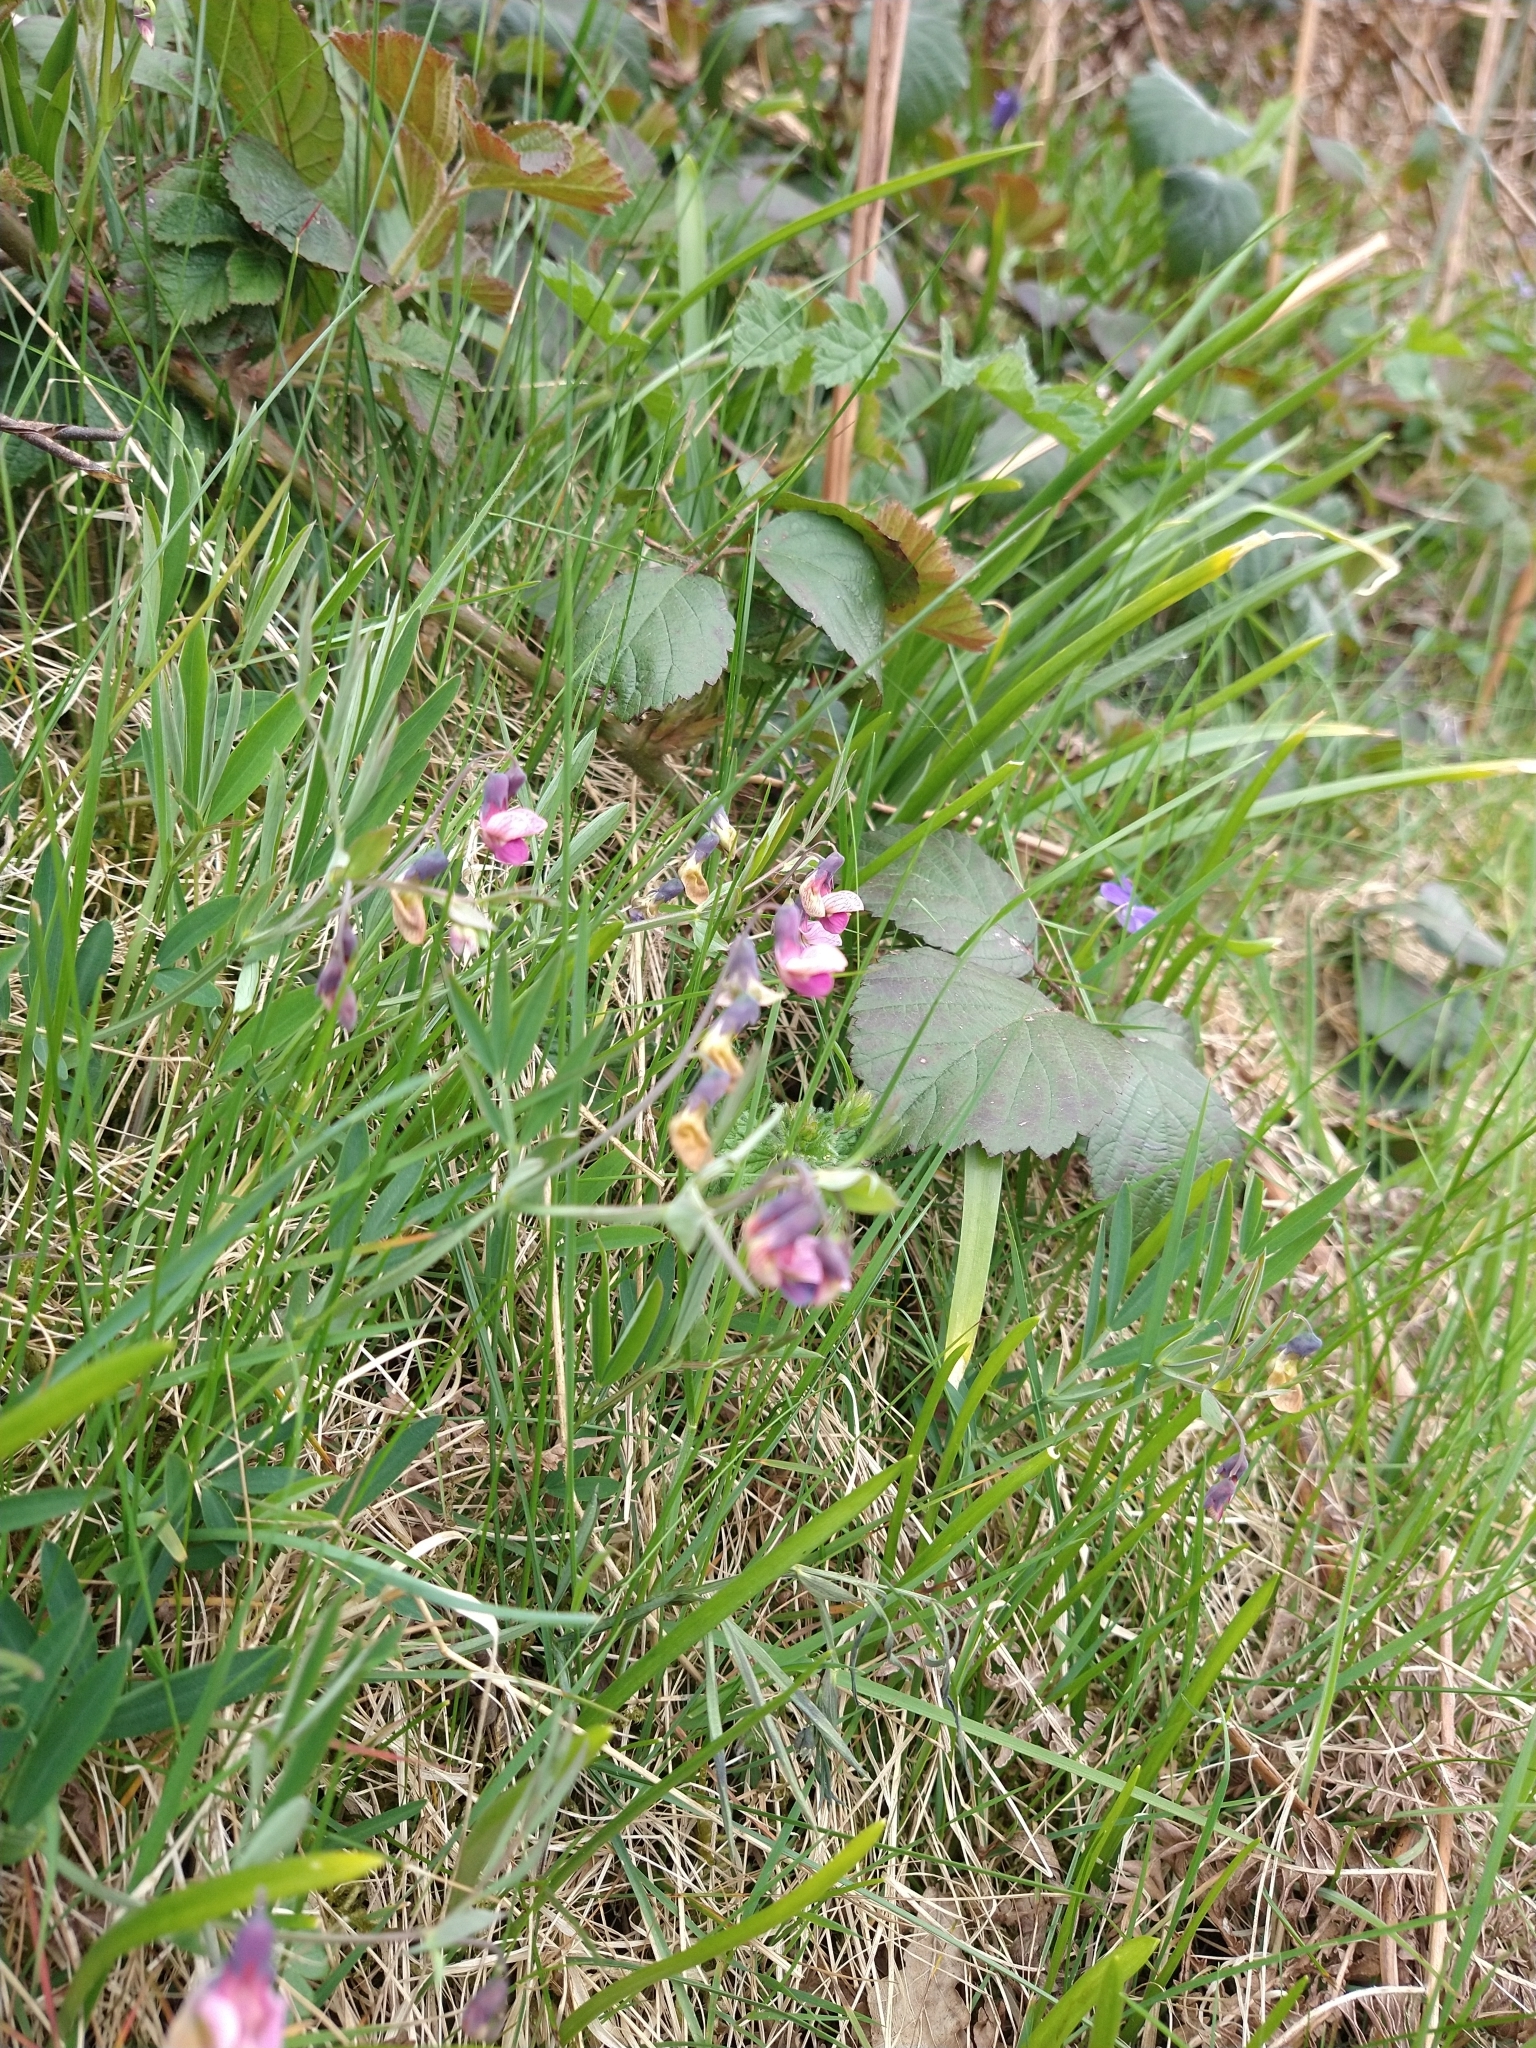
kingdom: Plantae
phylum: Tracheophyta
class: Magnoliopsida
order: Fabales
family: Fabaceae
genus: Lathyrus
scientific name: Lathyrus linifolius
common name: Bitter-vetch
